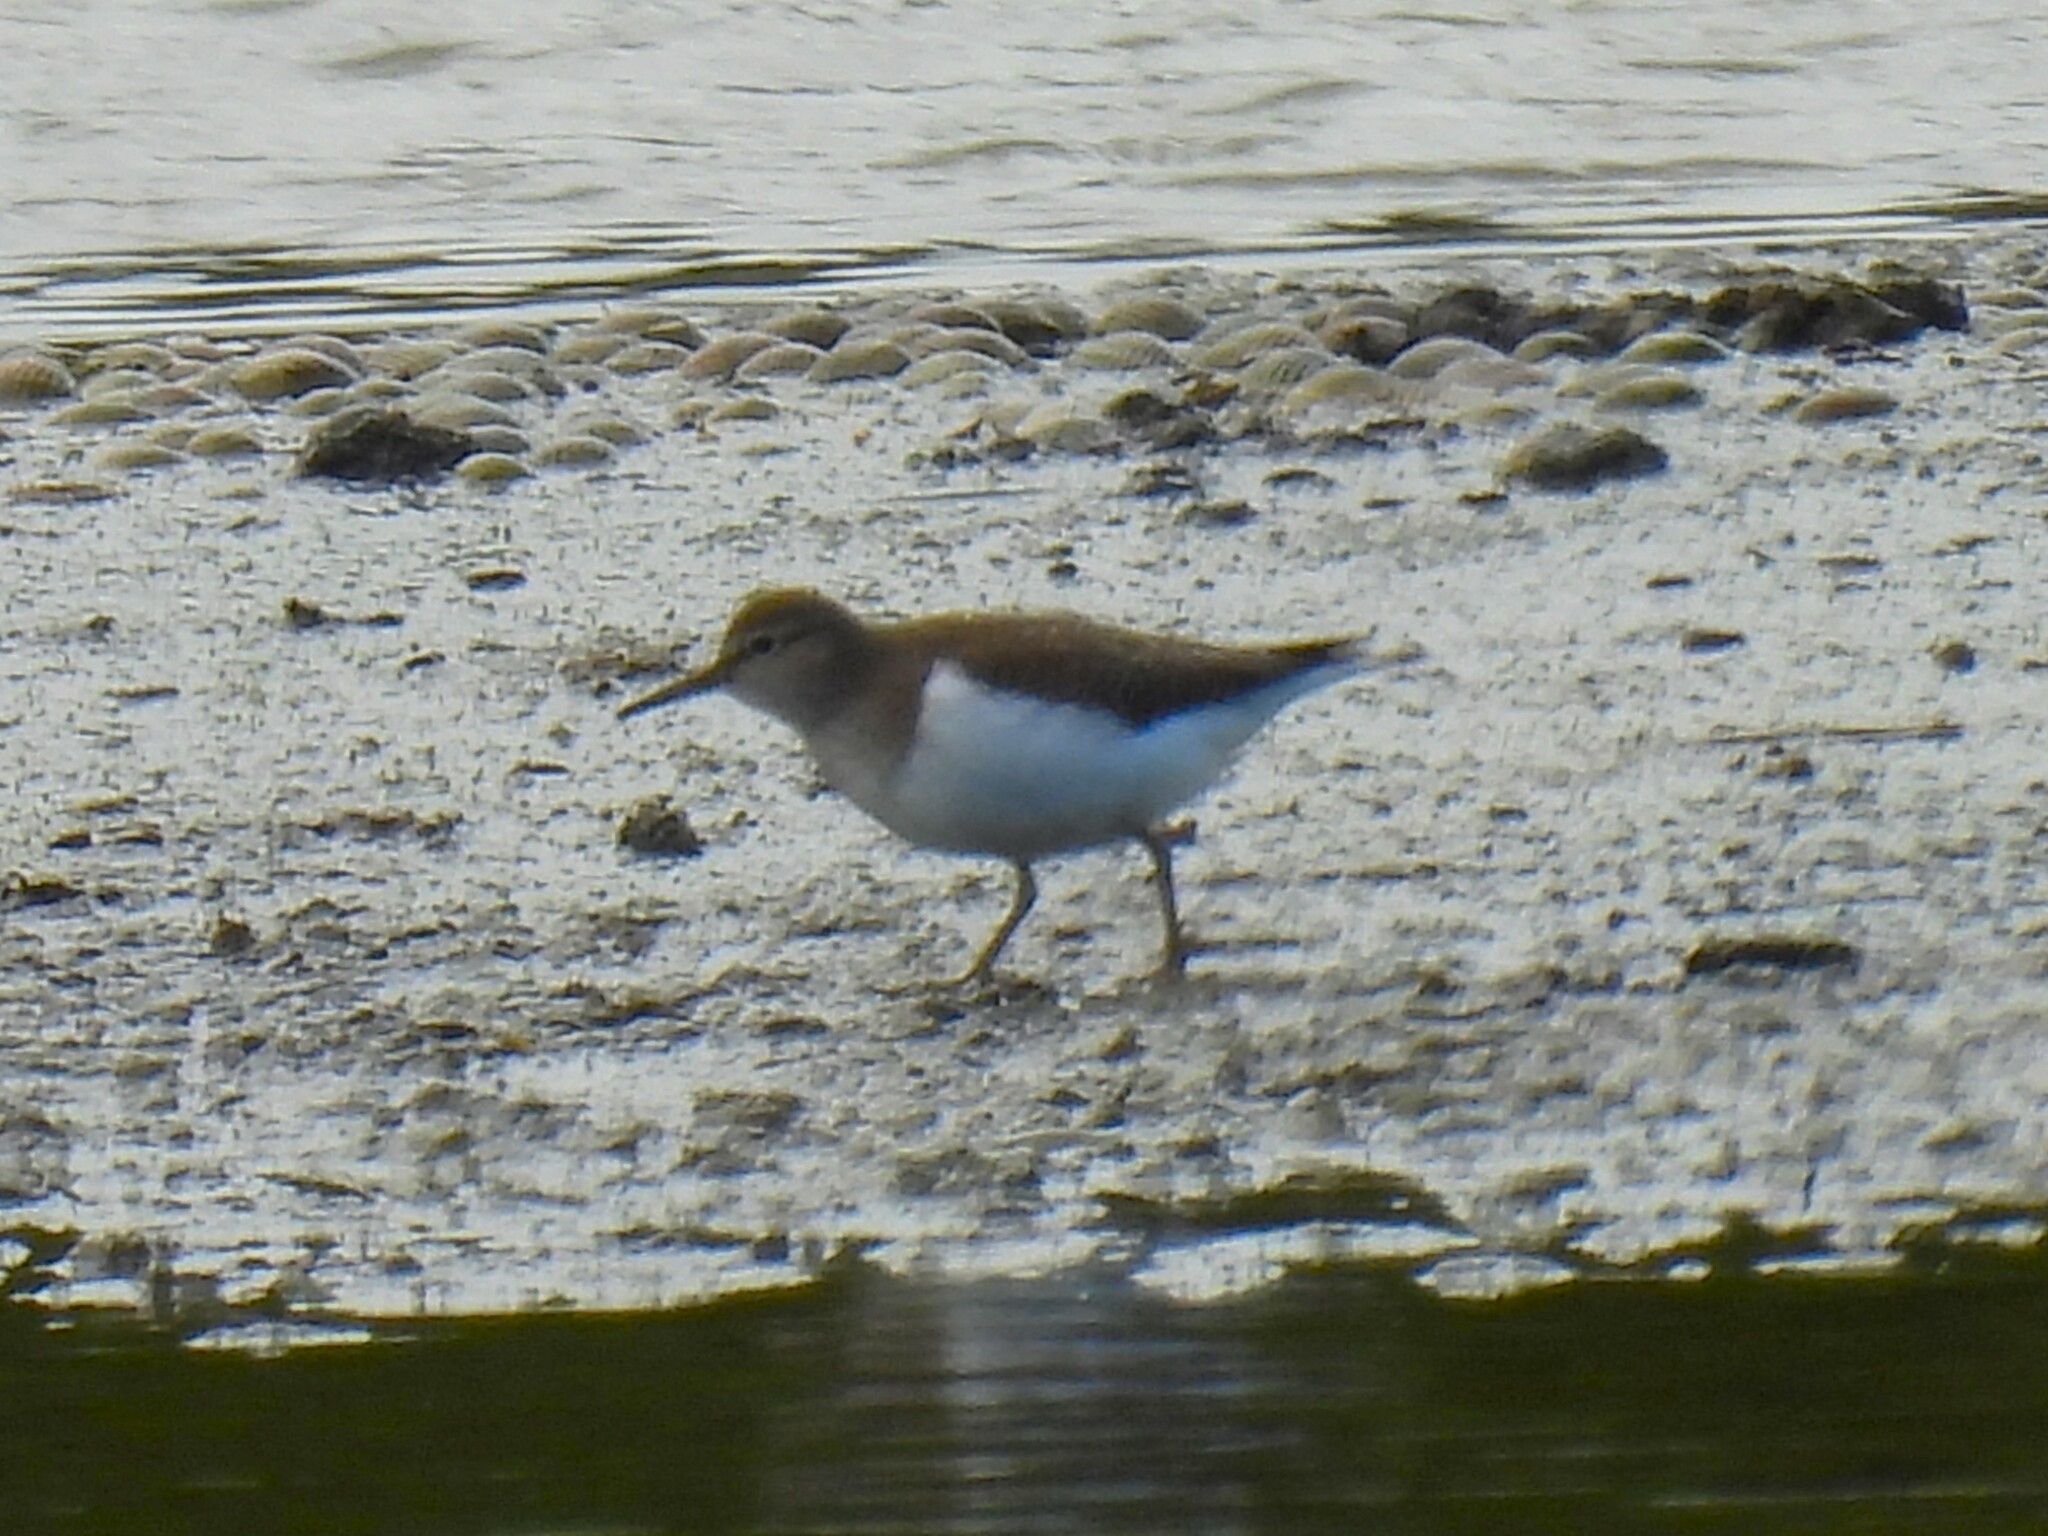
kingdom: Animalia
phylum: Chordata
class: Aves
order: Charadriiformes
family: Scolopacidae
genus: Actitis
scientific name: Actitis hypoleucos
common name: Common sandpiper
